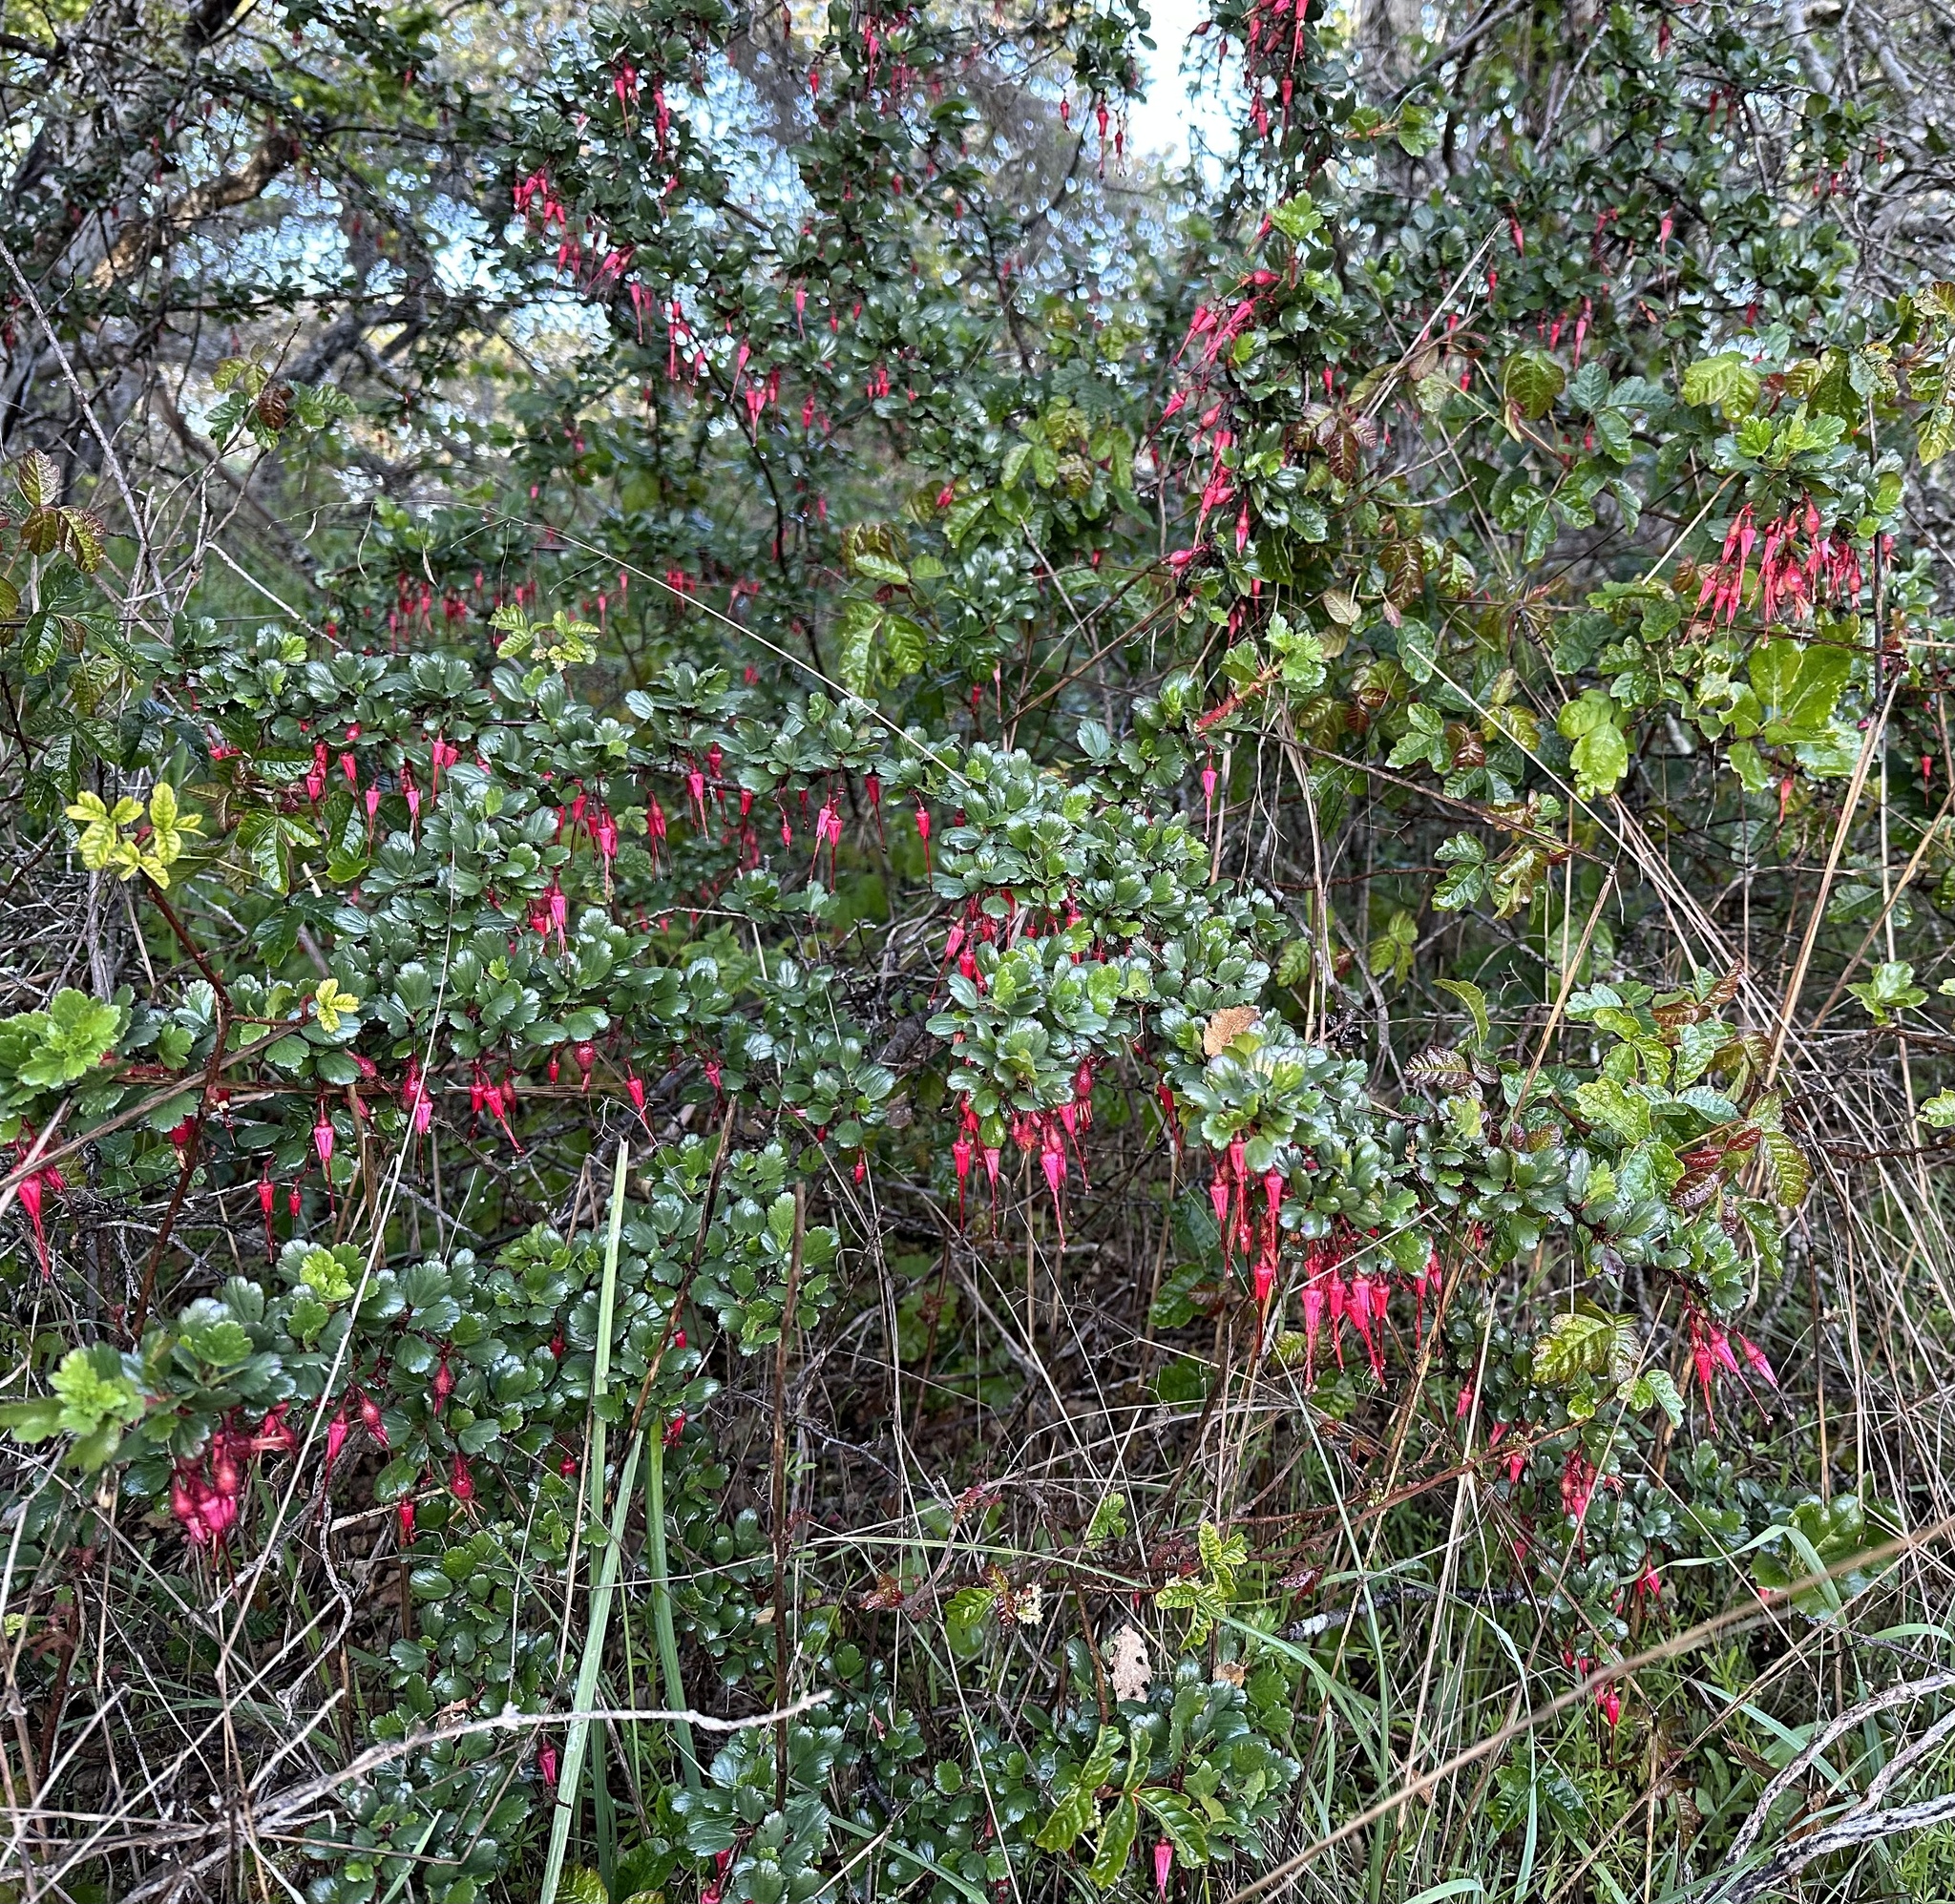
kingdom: Plantae
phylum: Tracheophyta
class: Magnoliopsida
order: Saxifragales
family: Grossulariaceae
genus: Ribes
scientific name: Ribes speciosum
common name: Fuchsia-flower gooseberry
